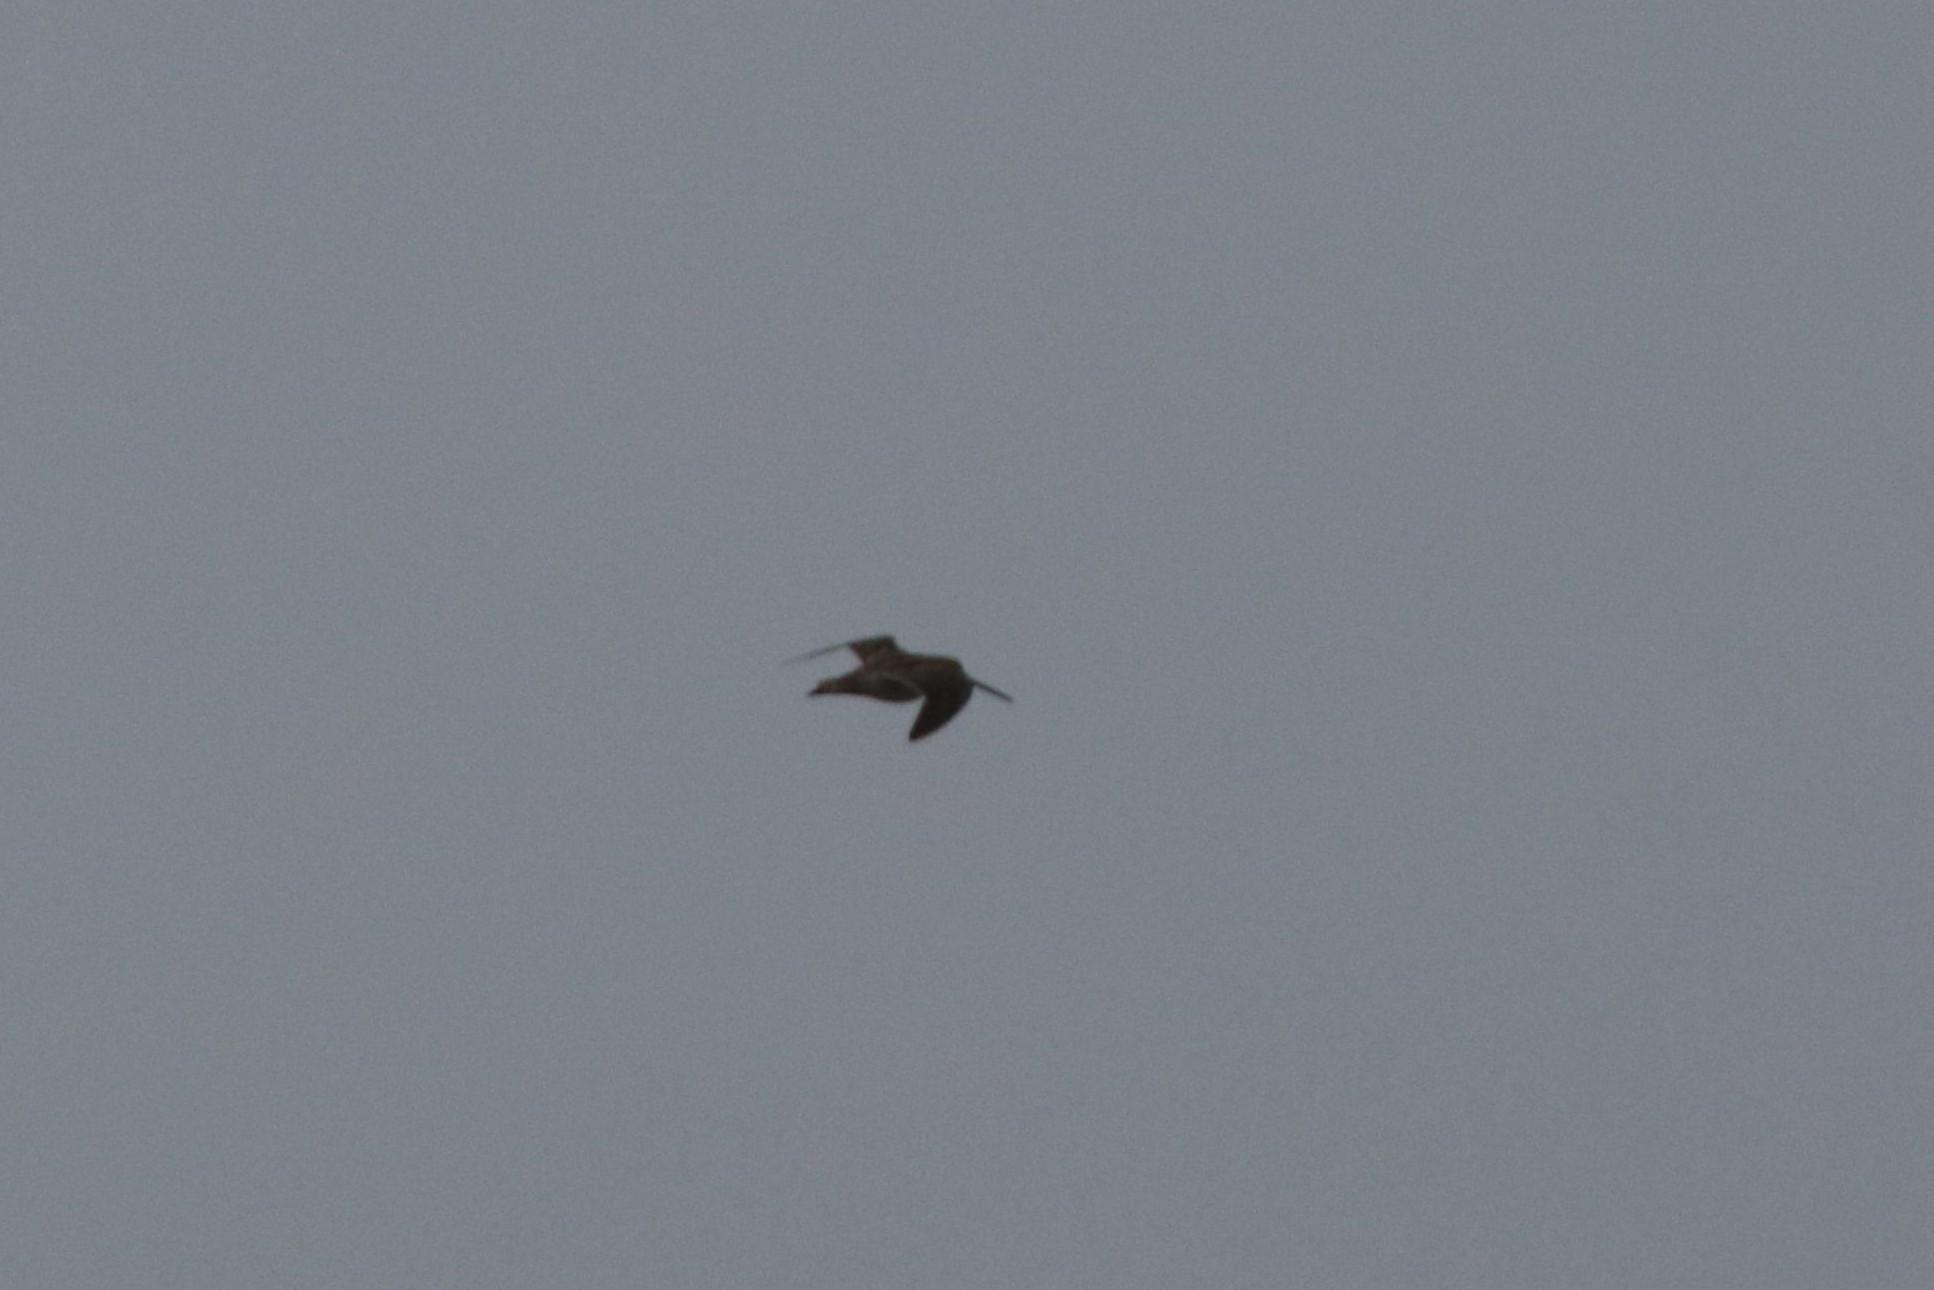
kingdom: Animalia
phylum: Chordata
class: Aves
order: Charadriiformes
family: Scolopacidae
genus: Gallinago
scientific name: Gallinago gallinago
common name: Common snipe
